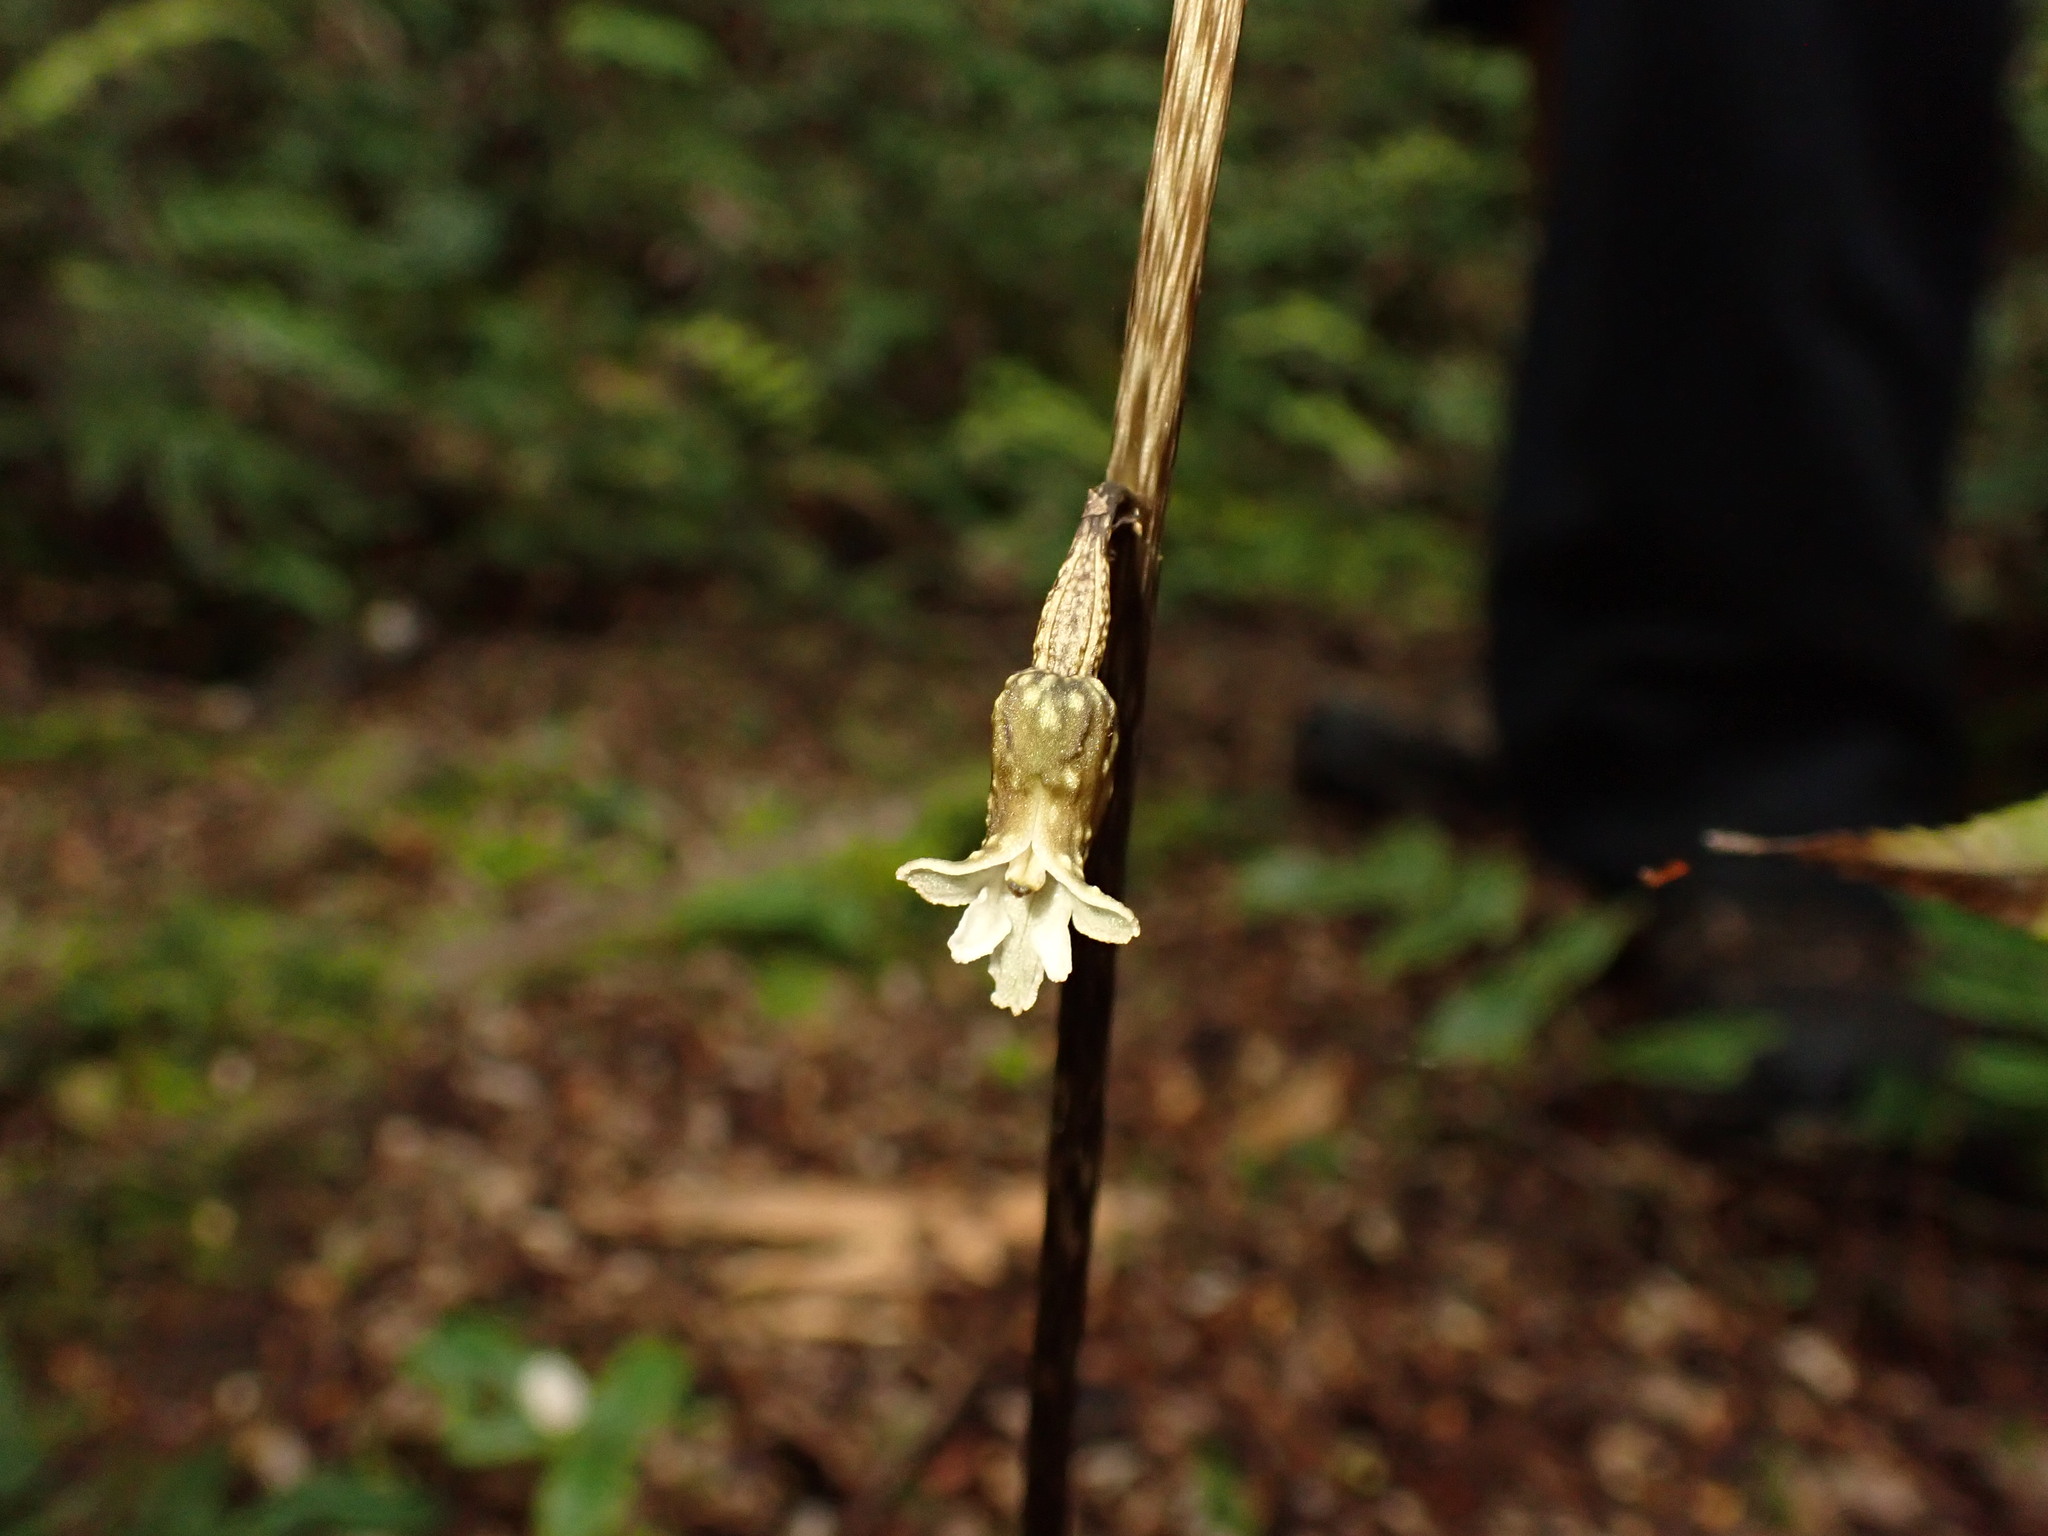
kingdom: Plantae
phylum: Tracheophyta
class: Liliopsida
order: Asparagales
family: Orchidaceae
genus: Gastrodia
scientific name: Gastrodia cunninghamii
